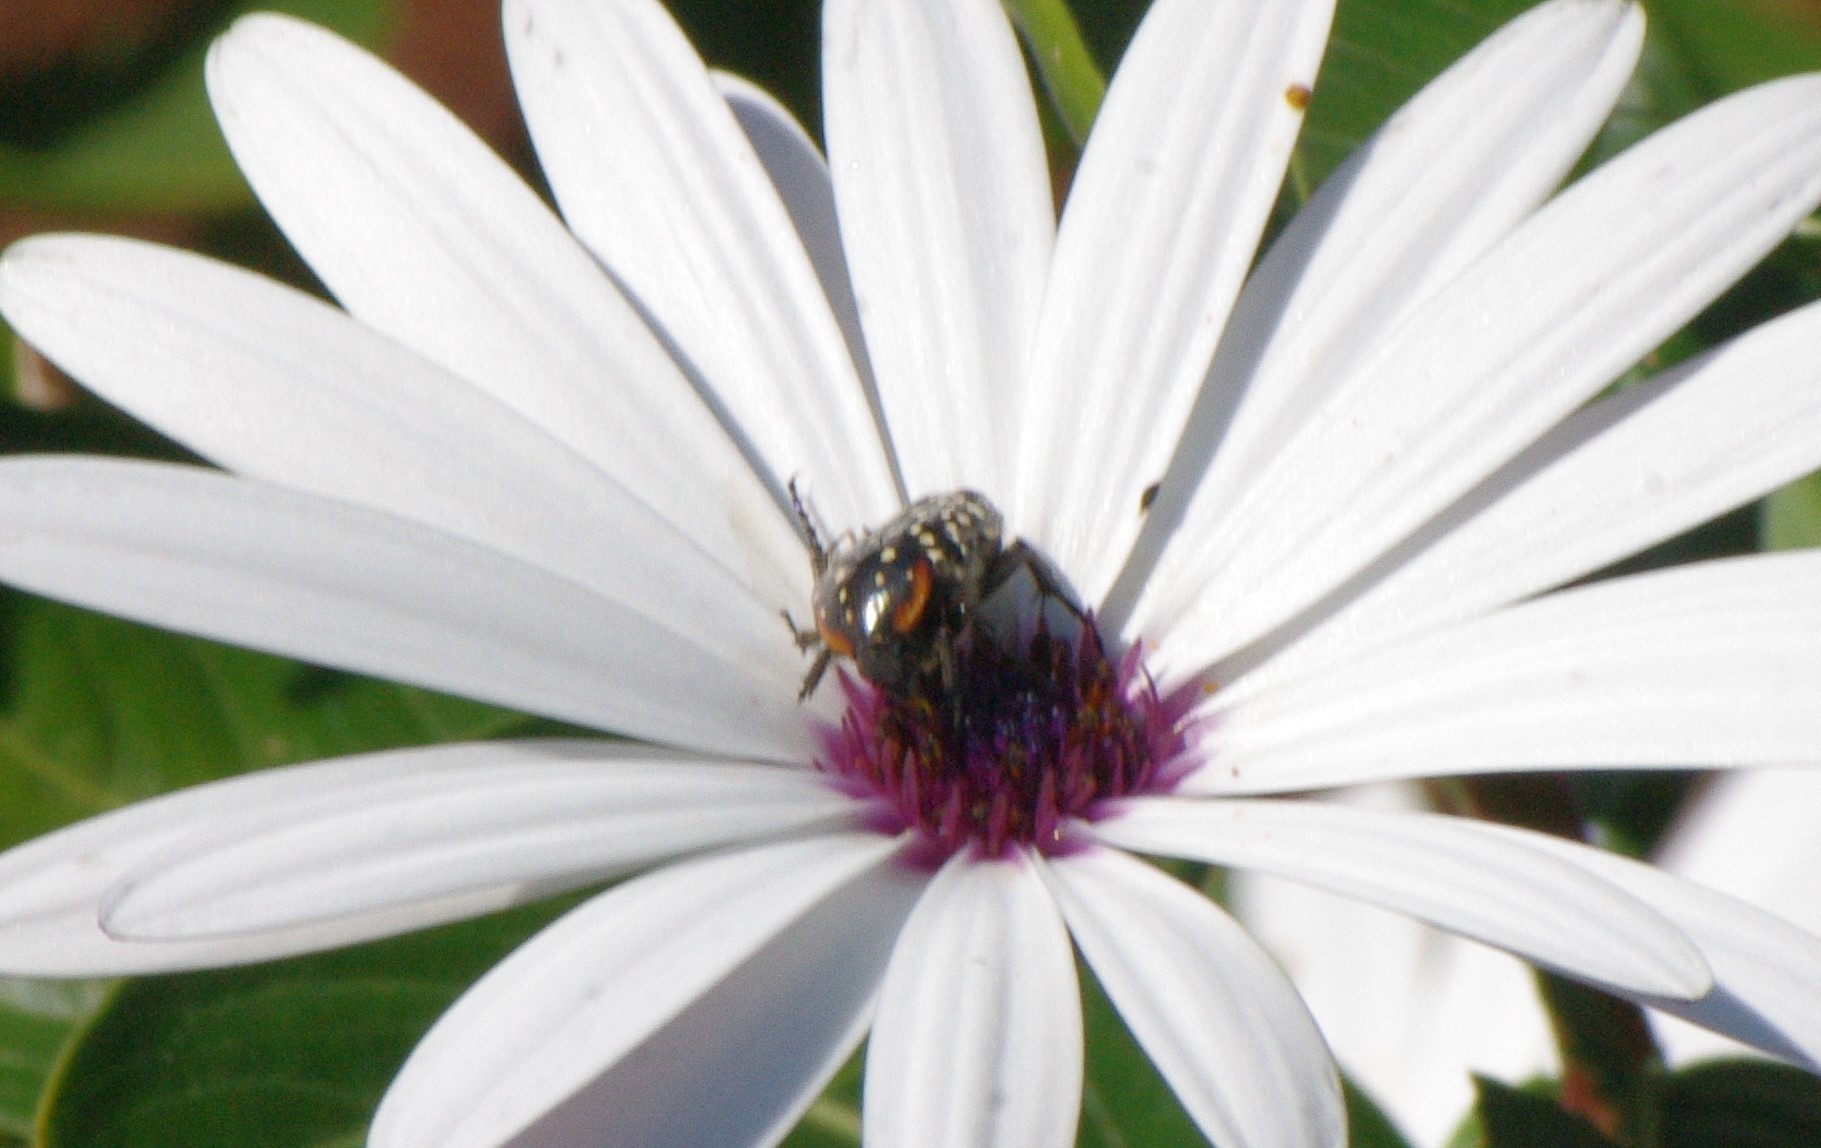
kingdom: Animalia
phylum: Arthropoda
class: Insecta
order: Coleoptera
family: Scarabaeidae
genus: Oxythyrea
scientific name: Oxythyrea
